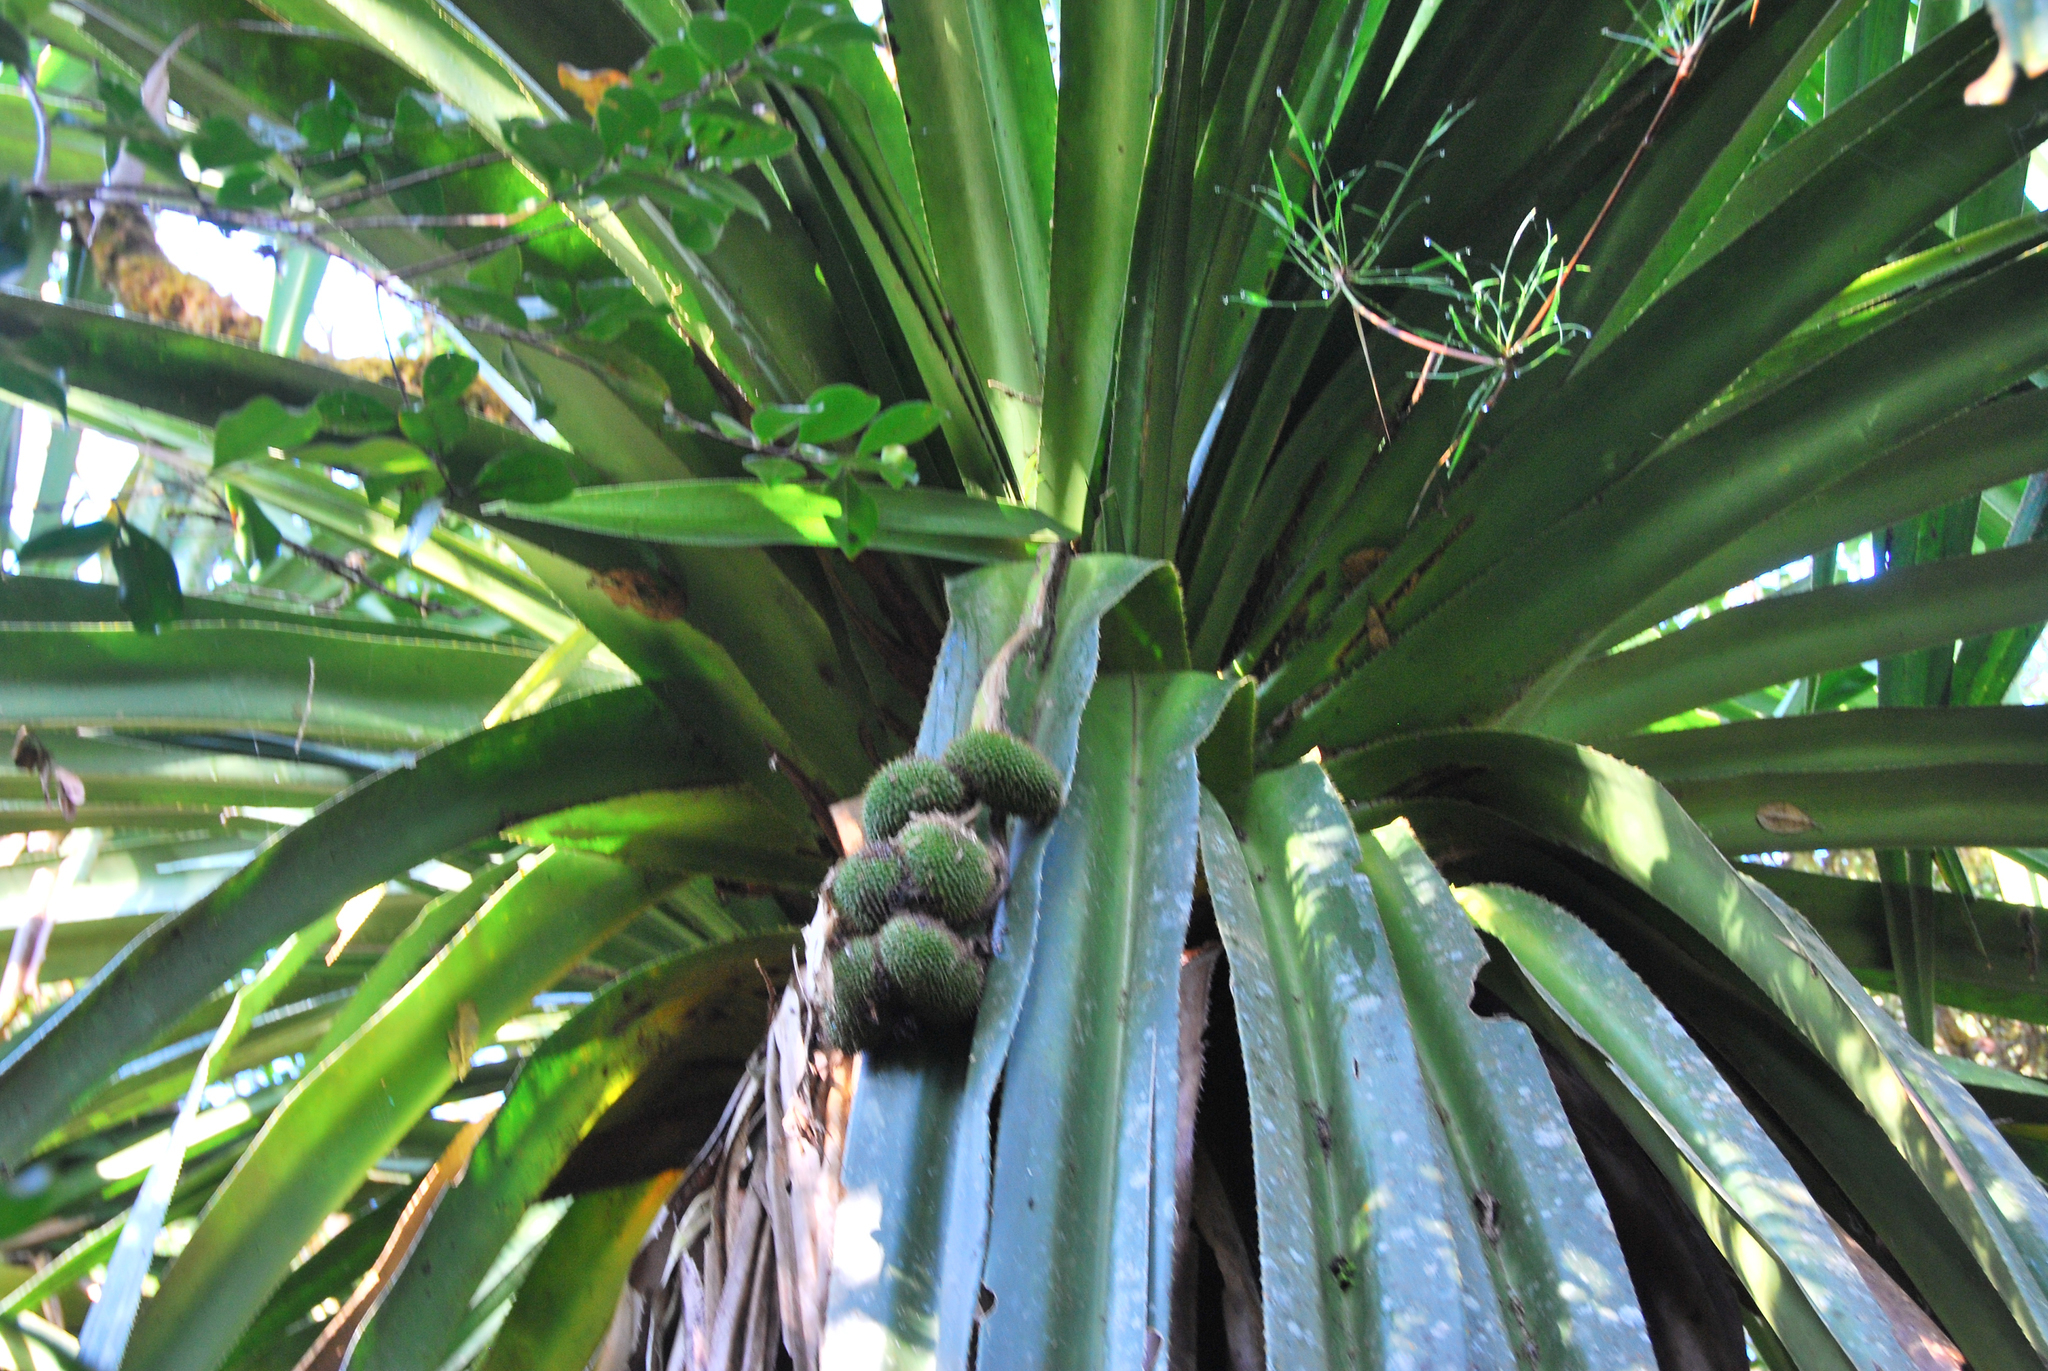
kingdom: Plantae
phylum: Tracheophyta
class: Liliopsida
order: Pandanales
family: Pandanaceae
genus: Pandanus
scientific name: Pandanus longissimipedunculatus
